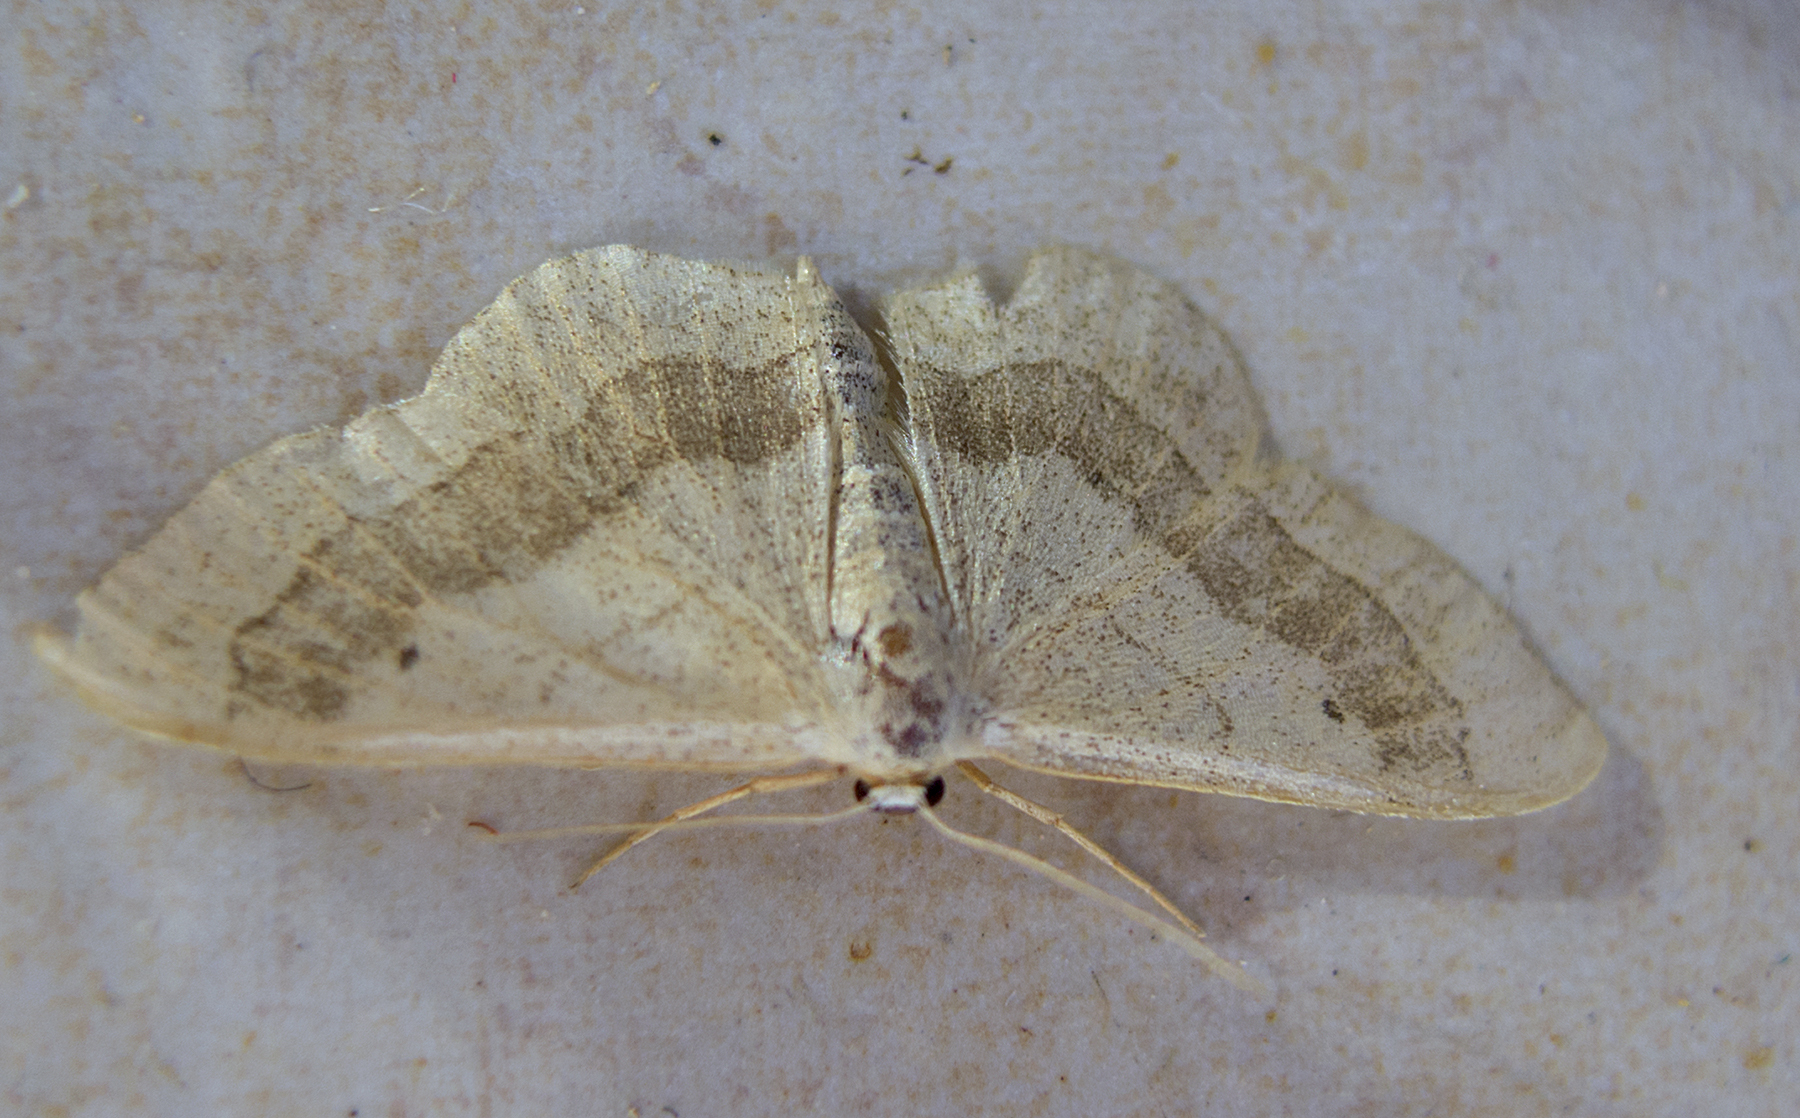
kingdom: Animalia
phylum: Arthropoda
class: Insecta
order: Lepidoptera
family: Geometridae
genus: Idaea
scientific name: Idaea aversata
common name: Riband wave
